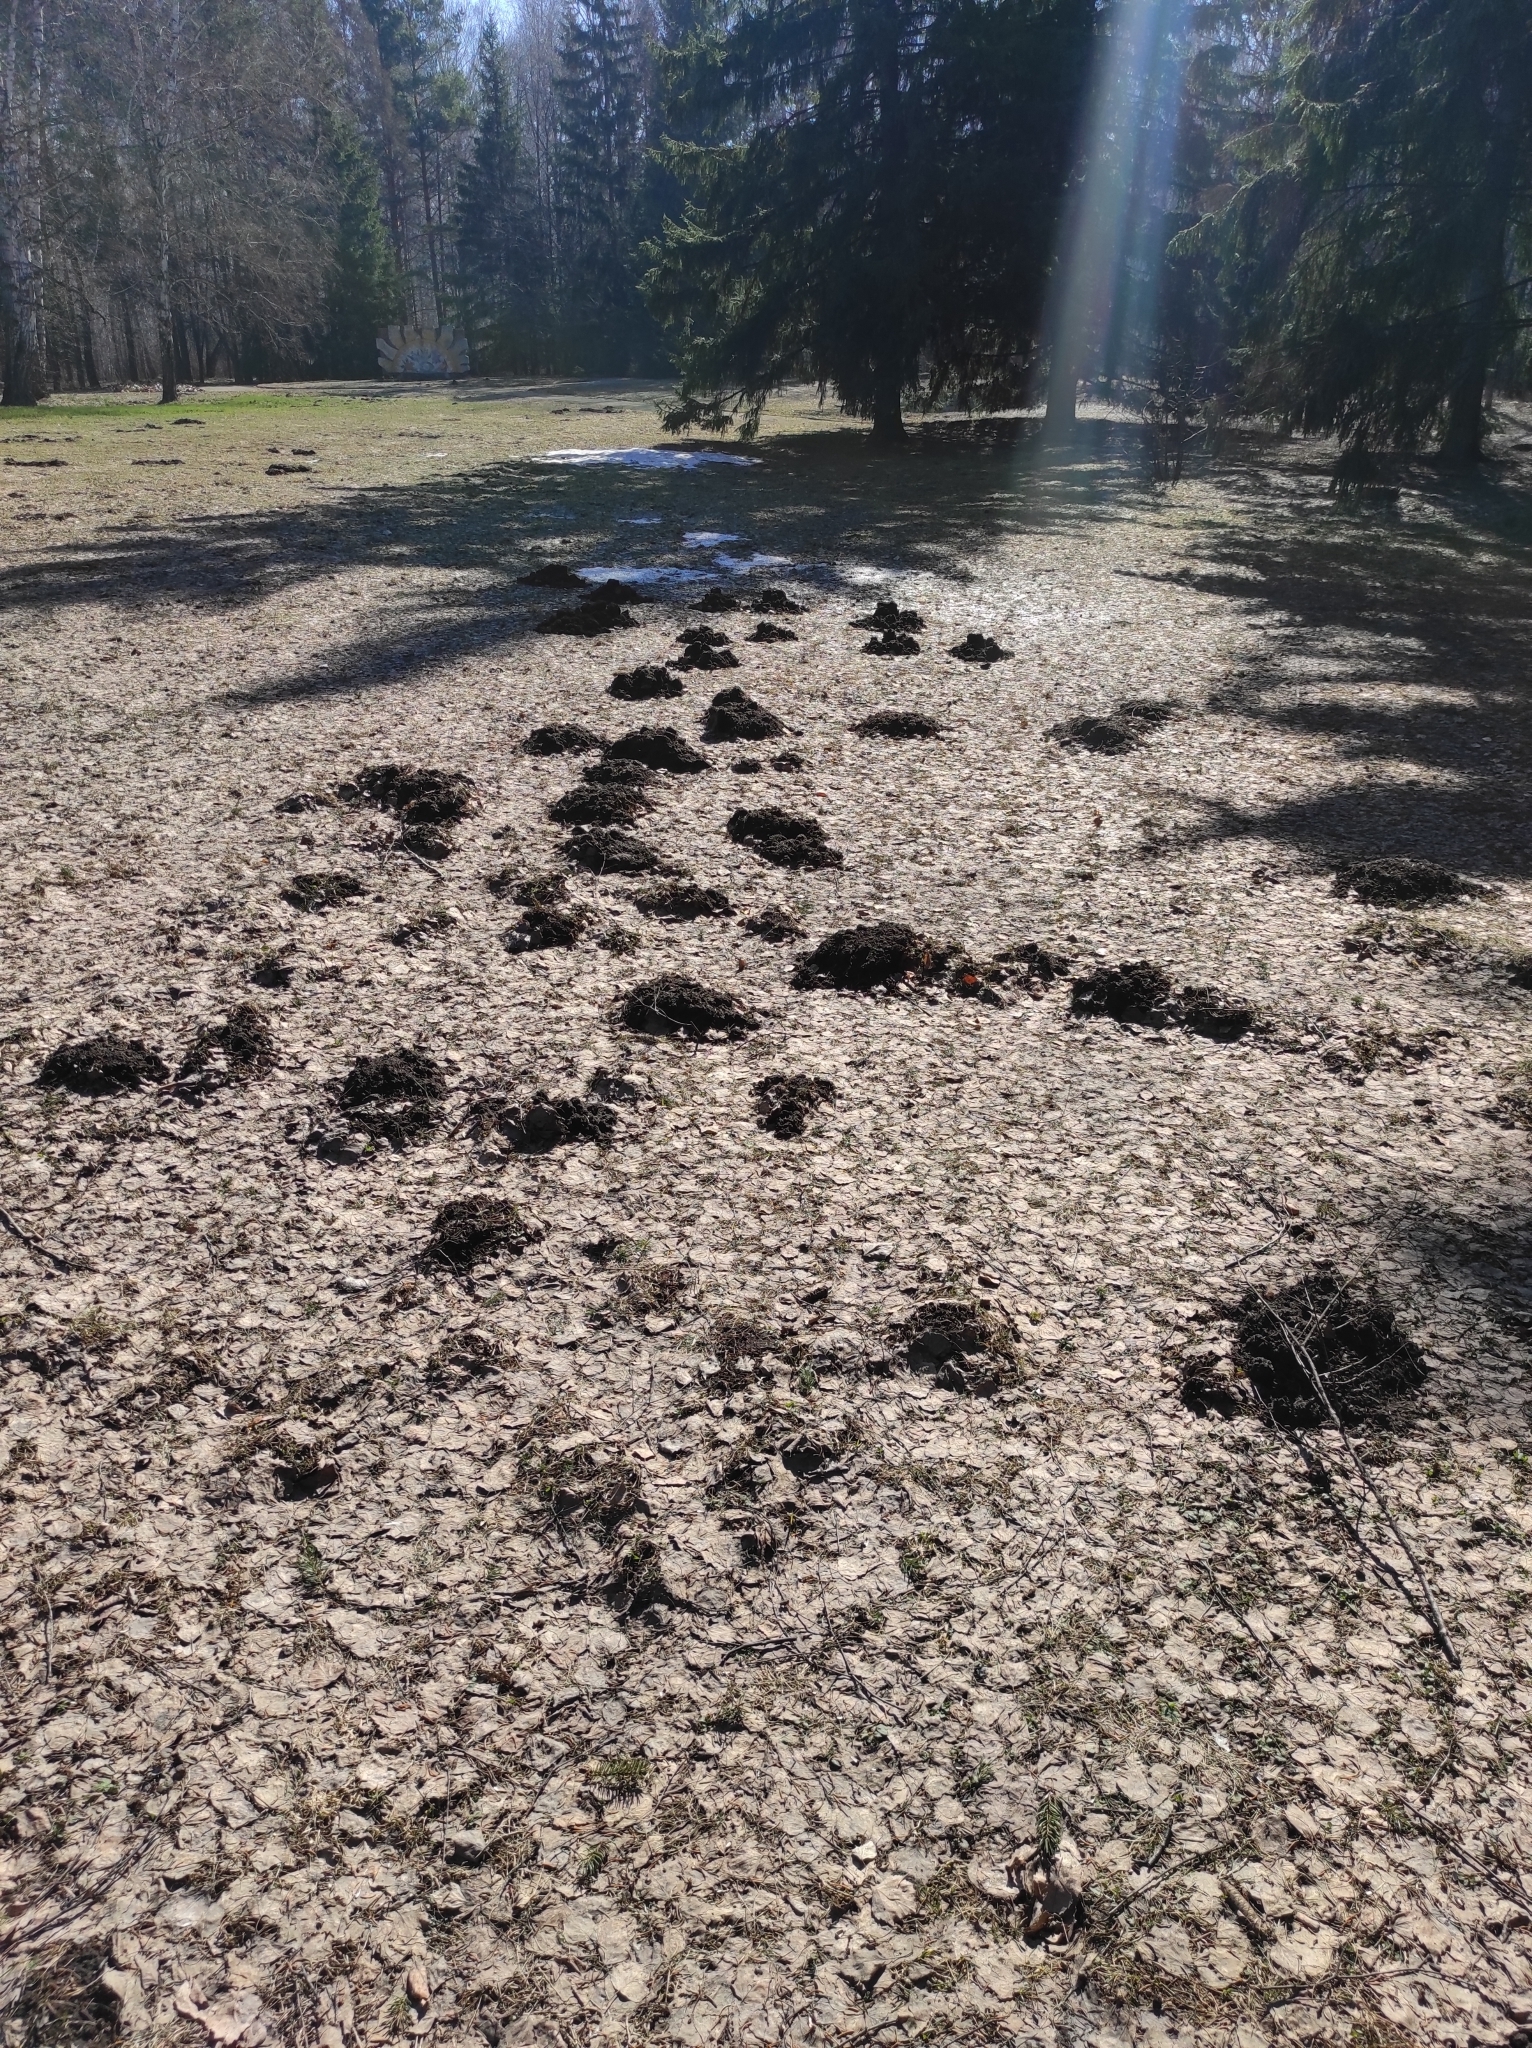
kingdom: Animalia
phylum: Chordata
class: Mammalia
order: Soricomorpha
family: Talpidae
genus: Talpa
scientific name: Talpa altaica
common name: Altai mole
